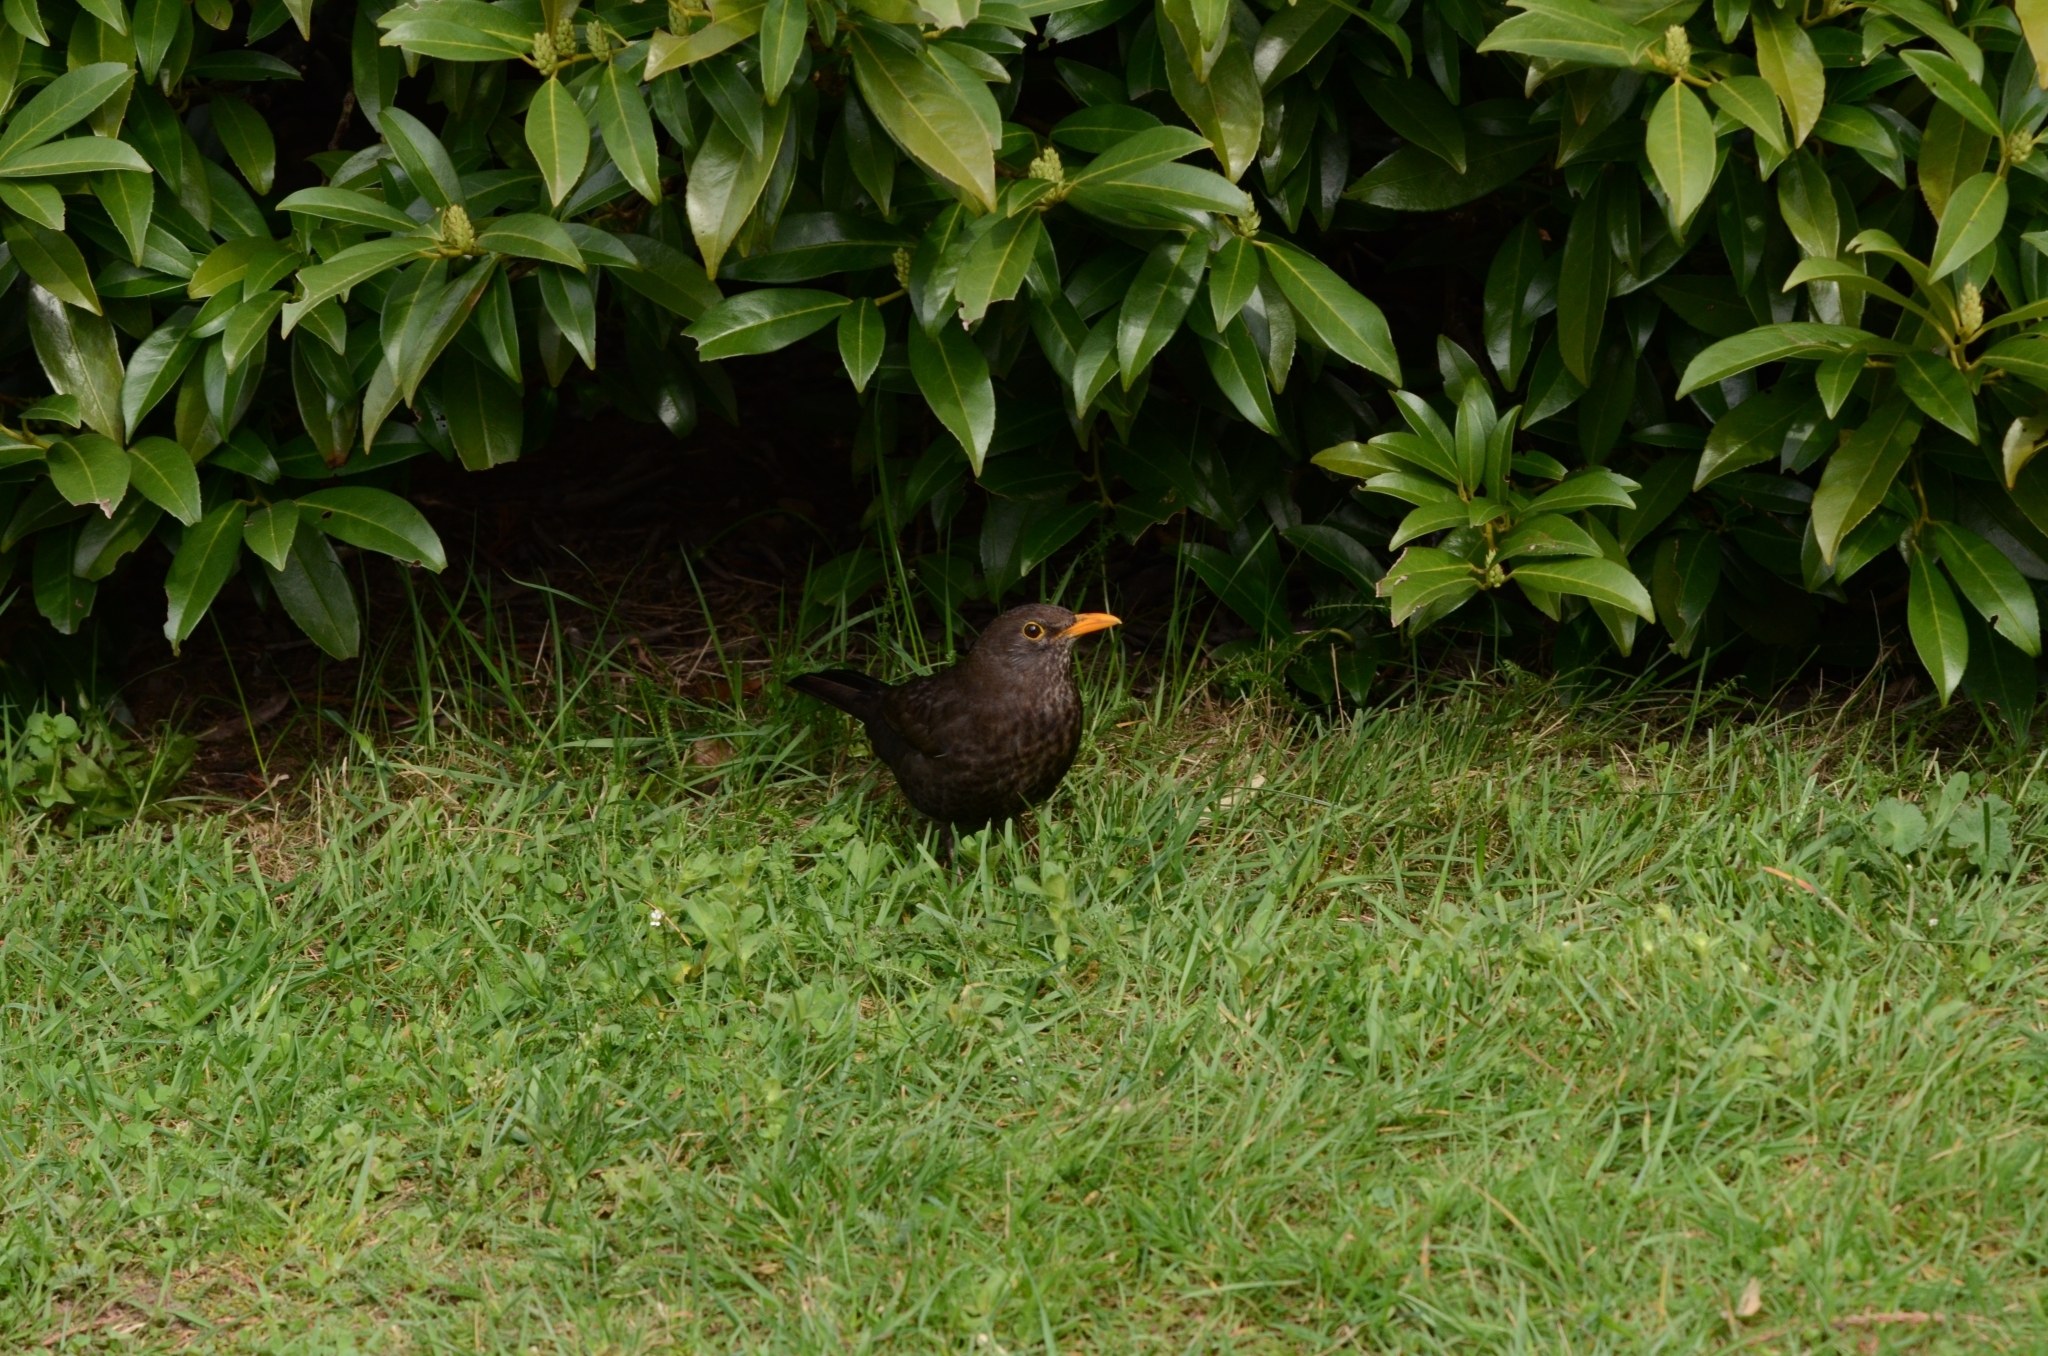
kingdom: Animalia
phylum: Chordata
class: Aves
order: Passeriformes
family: Turdidae
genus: Turdus
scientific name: Turdus merula
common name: Common blackbird
